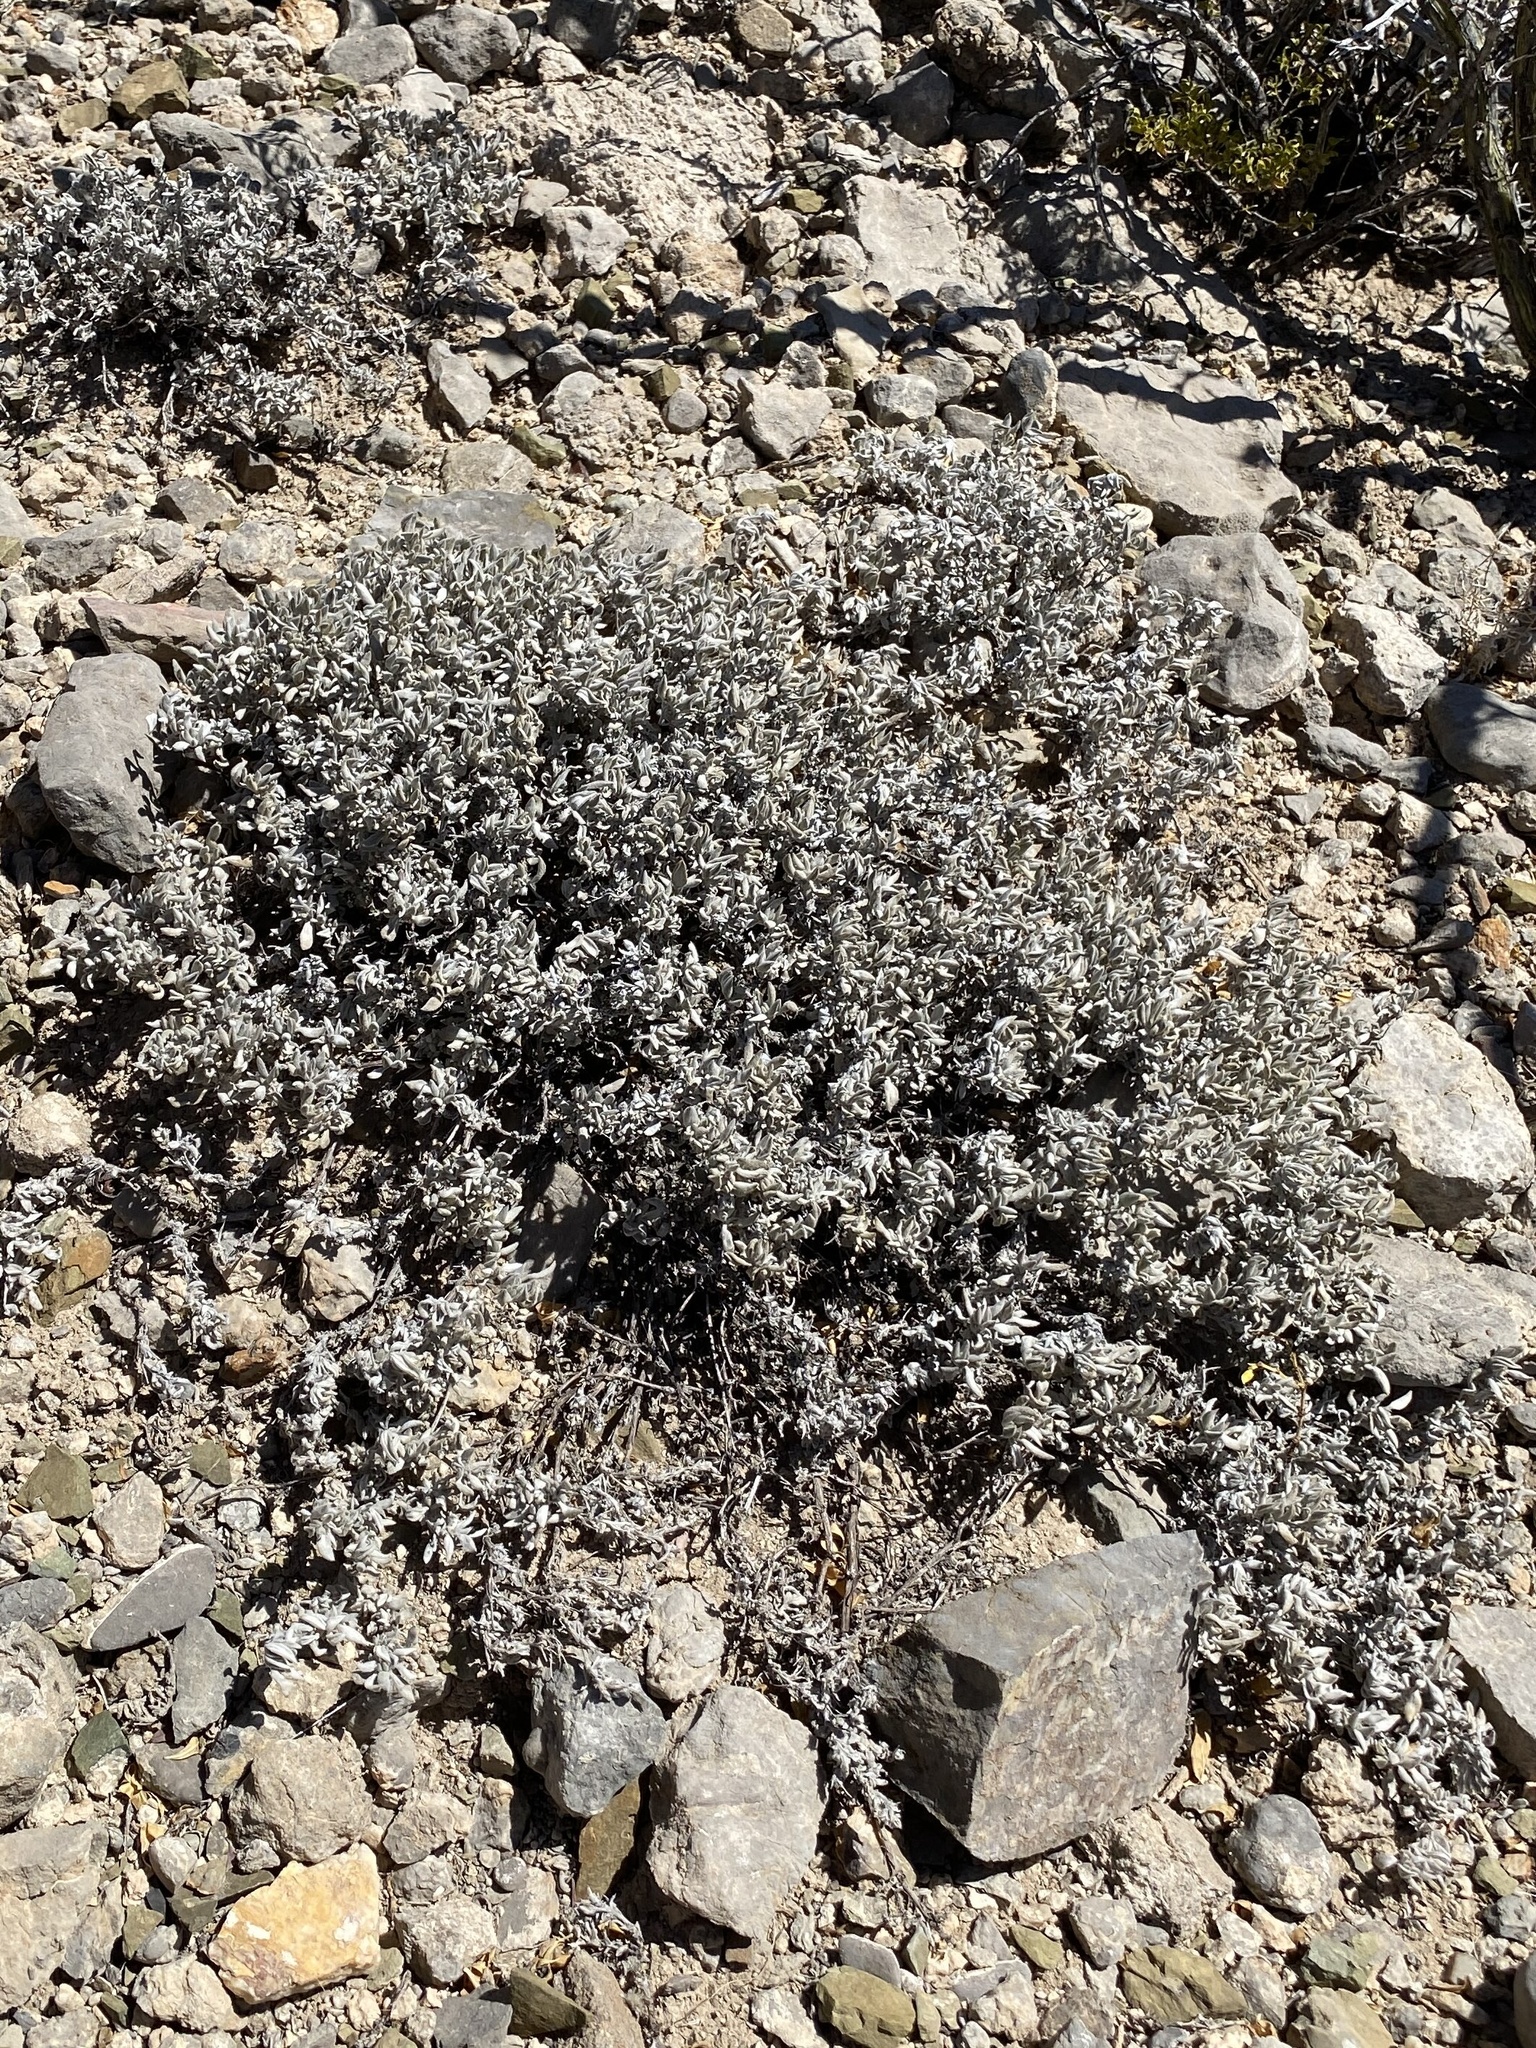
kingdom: Plantae
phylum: Tracheophyta
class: Magnoliopsida
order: Boraginales
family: Ehretiaceae
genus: Tiquilia
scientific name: Tiquilia canescens
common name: Hairy tiquilia
